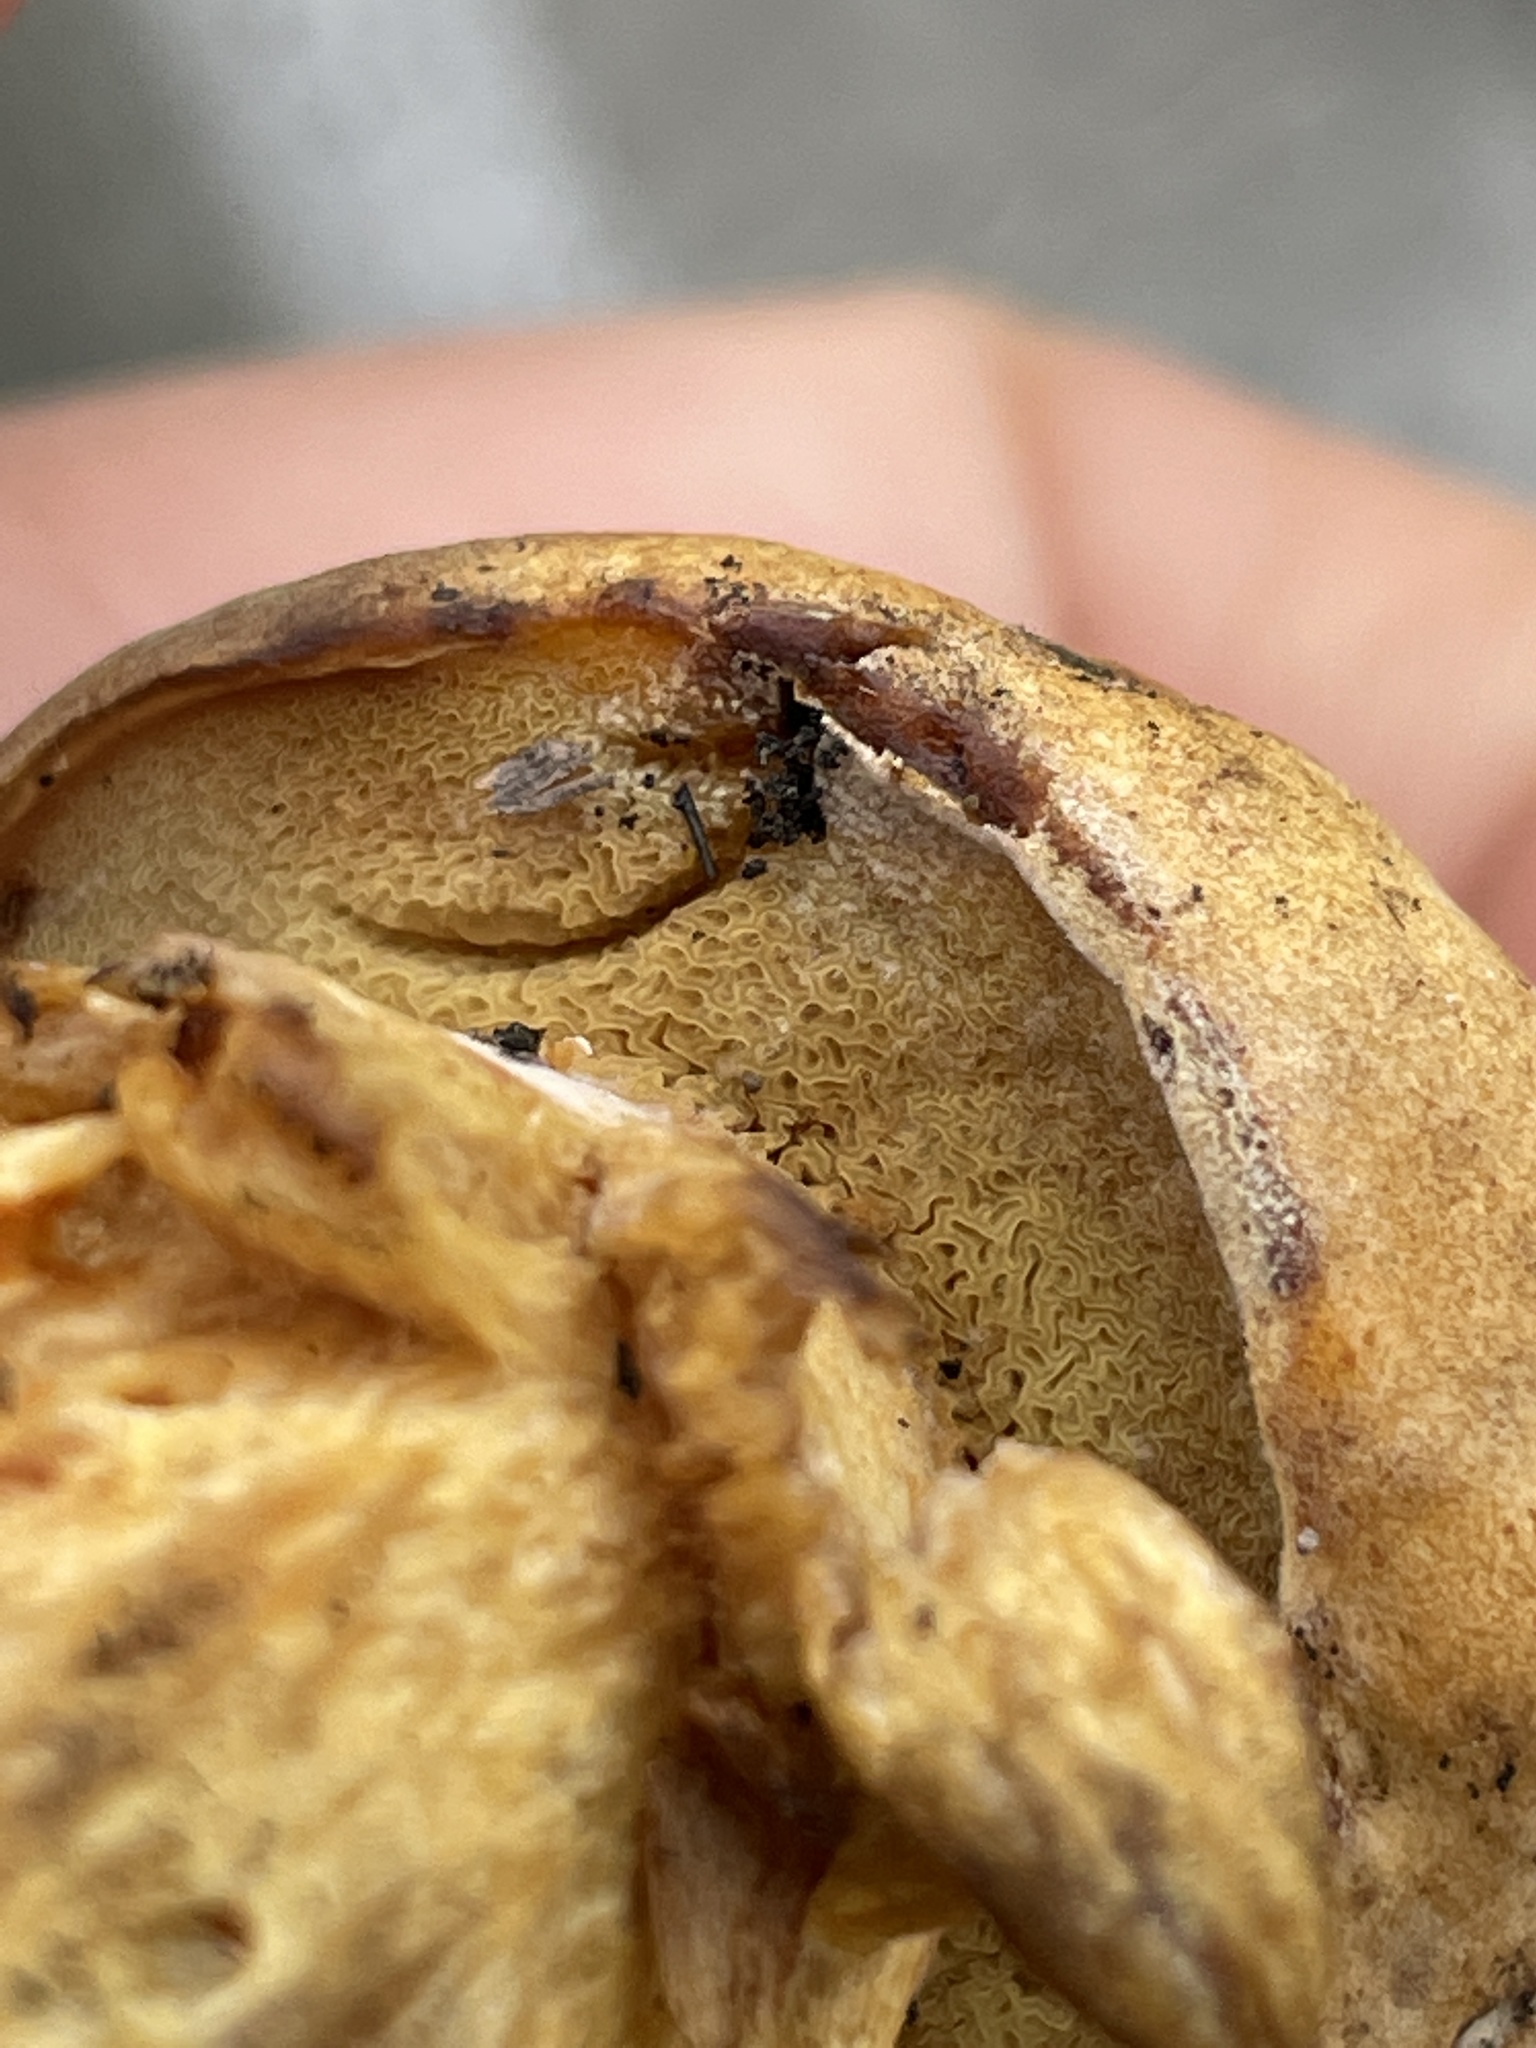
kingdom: Fungi
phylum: Basidiomycota
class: Agaricomycetes
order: Boletales
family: Boletaceae
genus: Xerocomus
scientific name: Xerocomus subtomentosus
